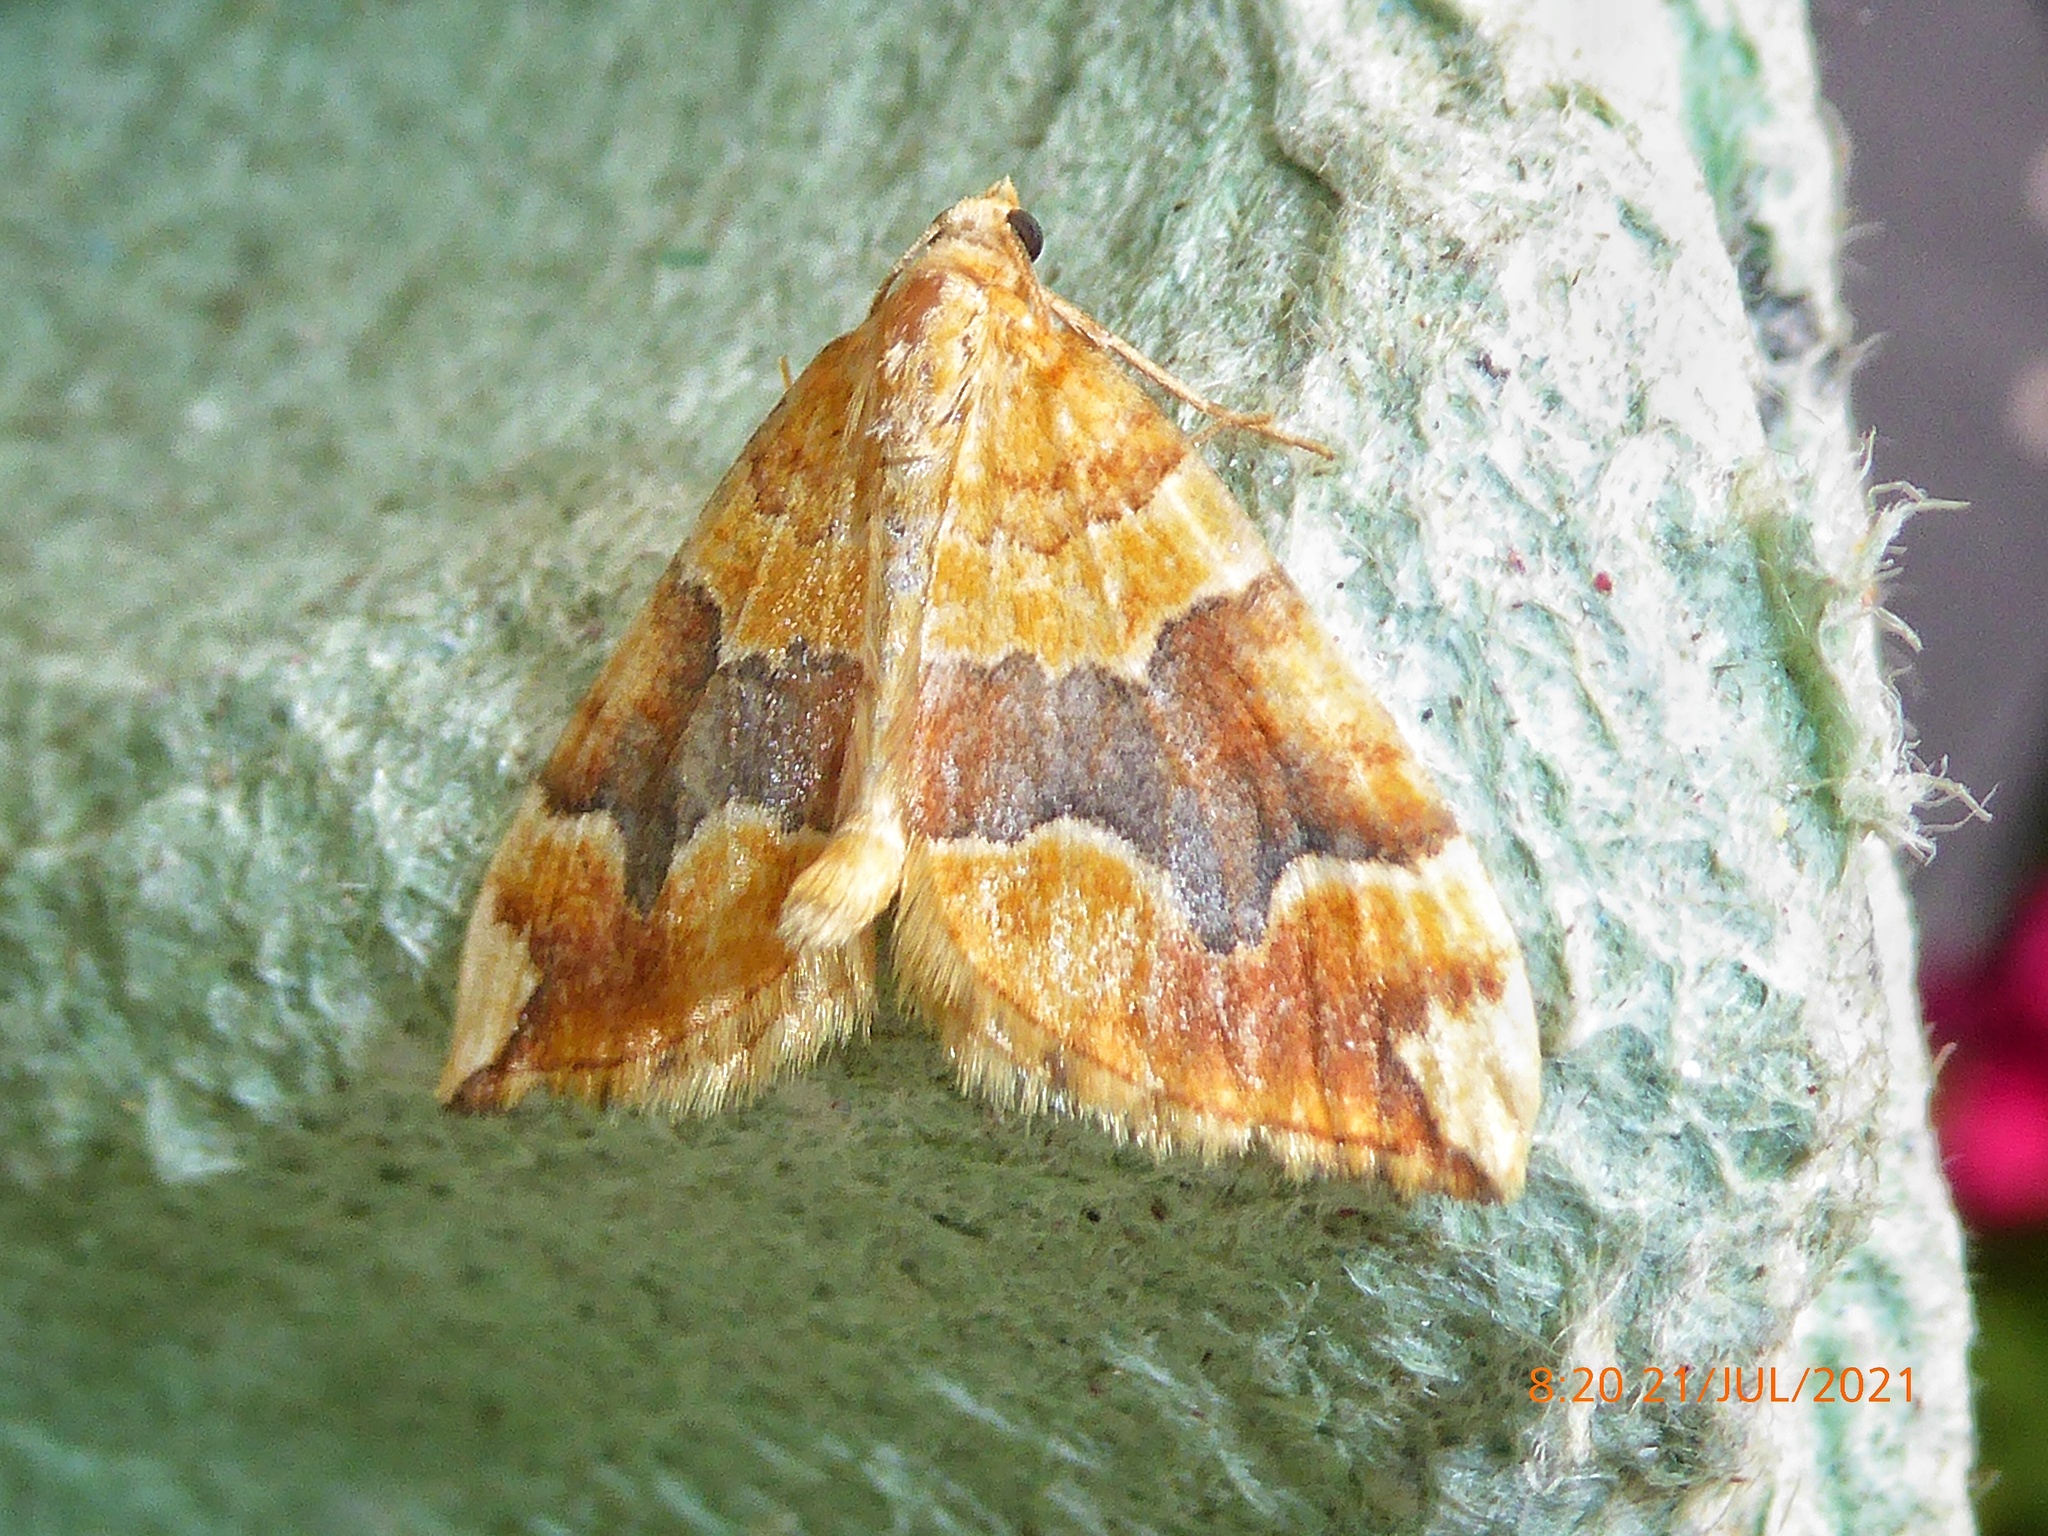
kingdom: Animalia
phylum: Arthropoda
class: Insecta
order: Lepidoptera
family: Geometridae
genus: Cidaria
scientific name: Cidaria fulvata
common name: Barred yellow
